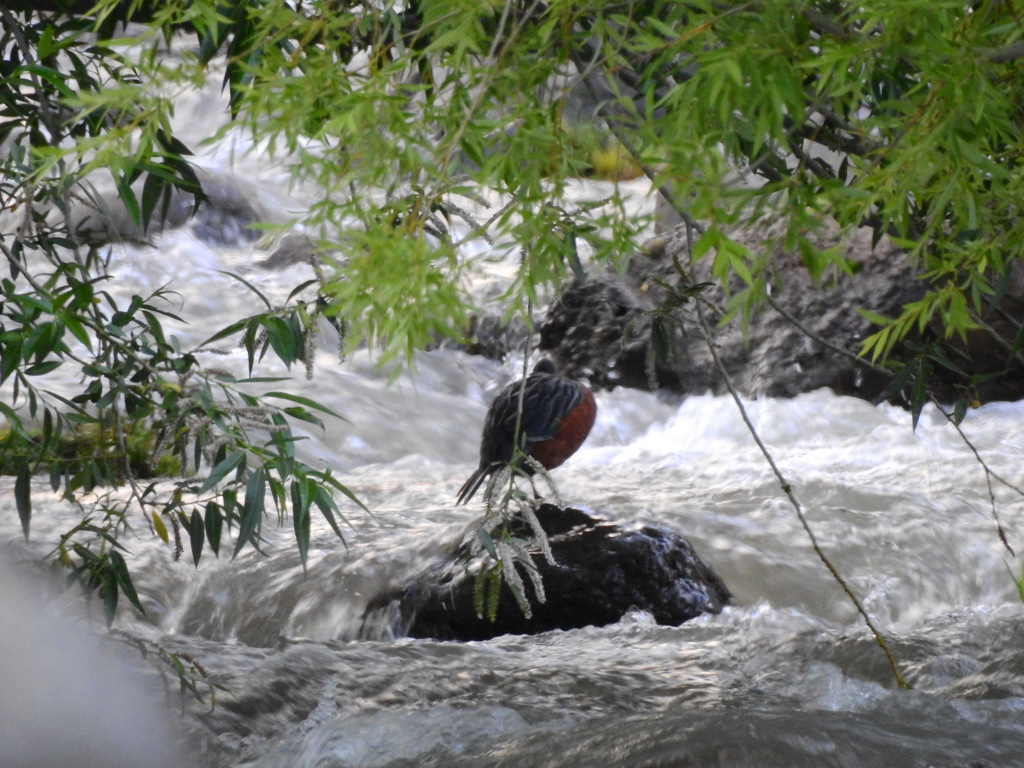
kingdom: Animalia
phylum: Chordata
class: Aves
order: Anseriformes
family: Anatidae
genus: Merganetta
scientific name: Merganetta armata
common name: Torrent duck
